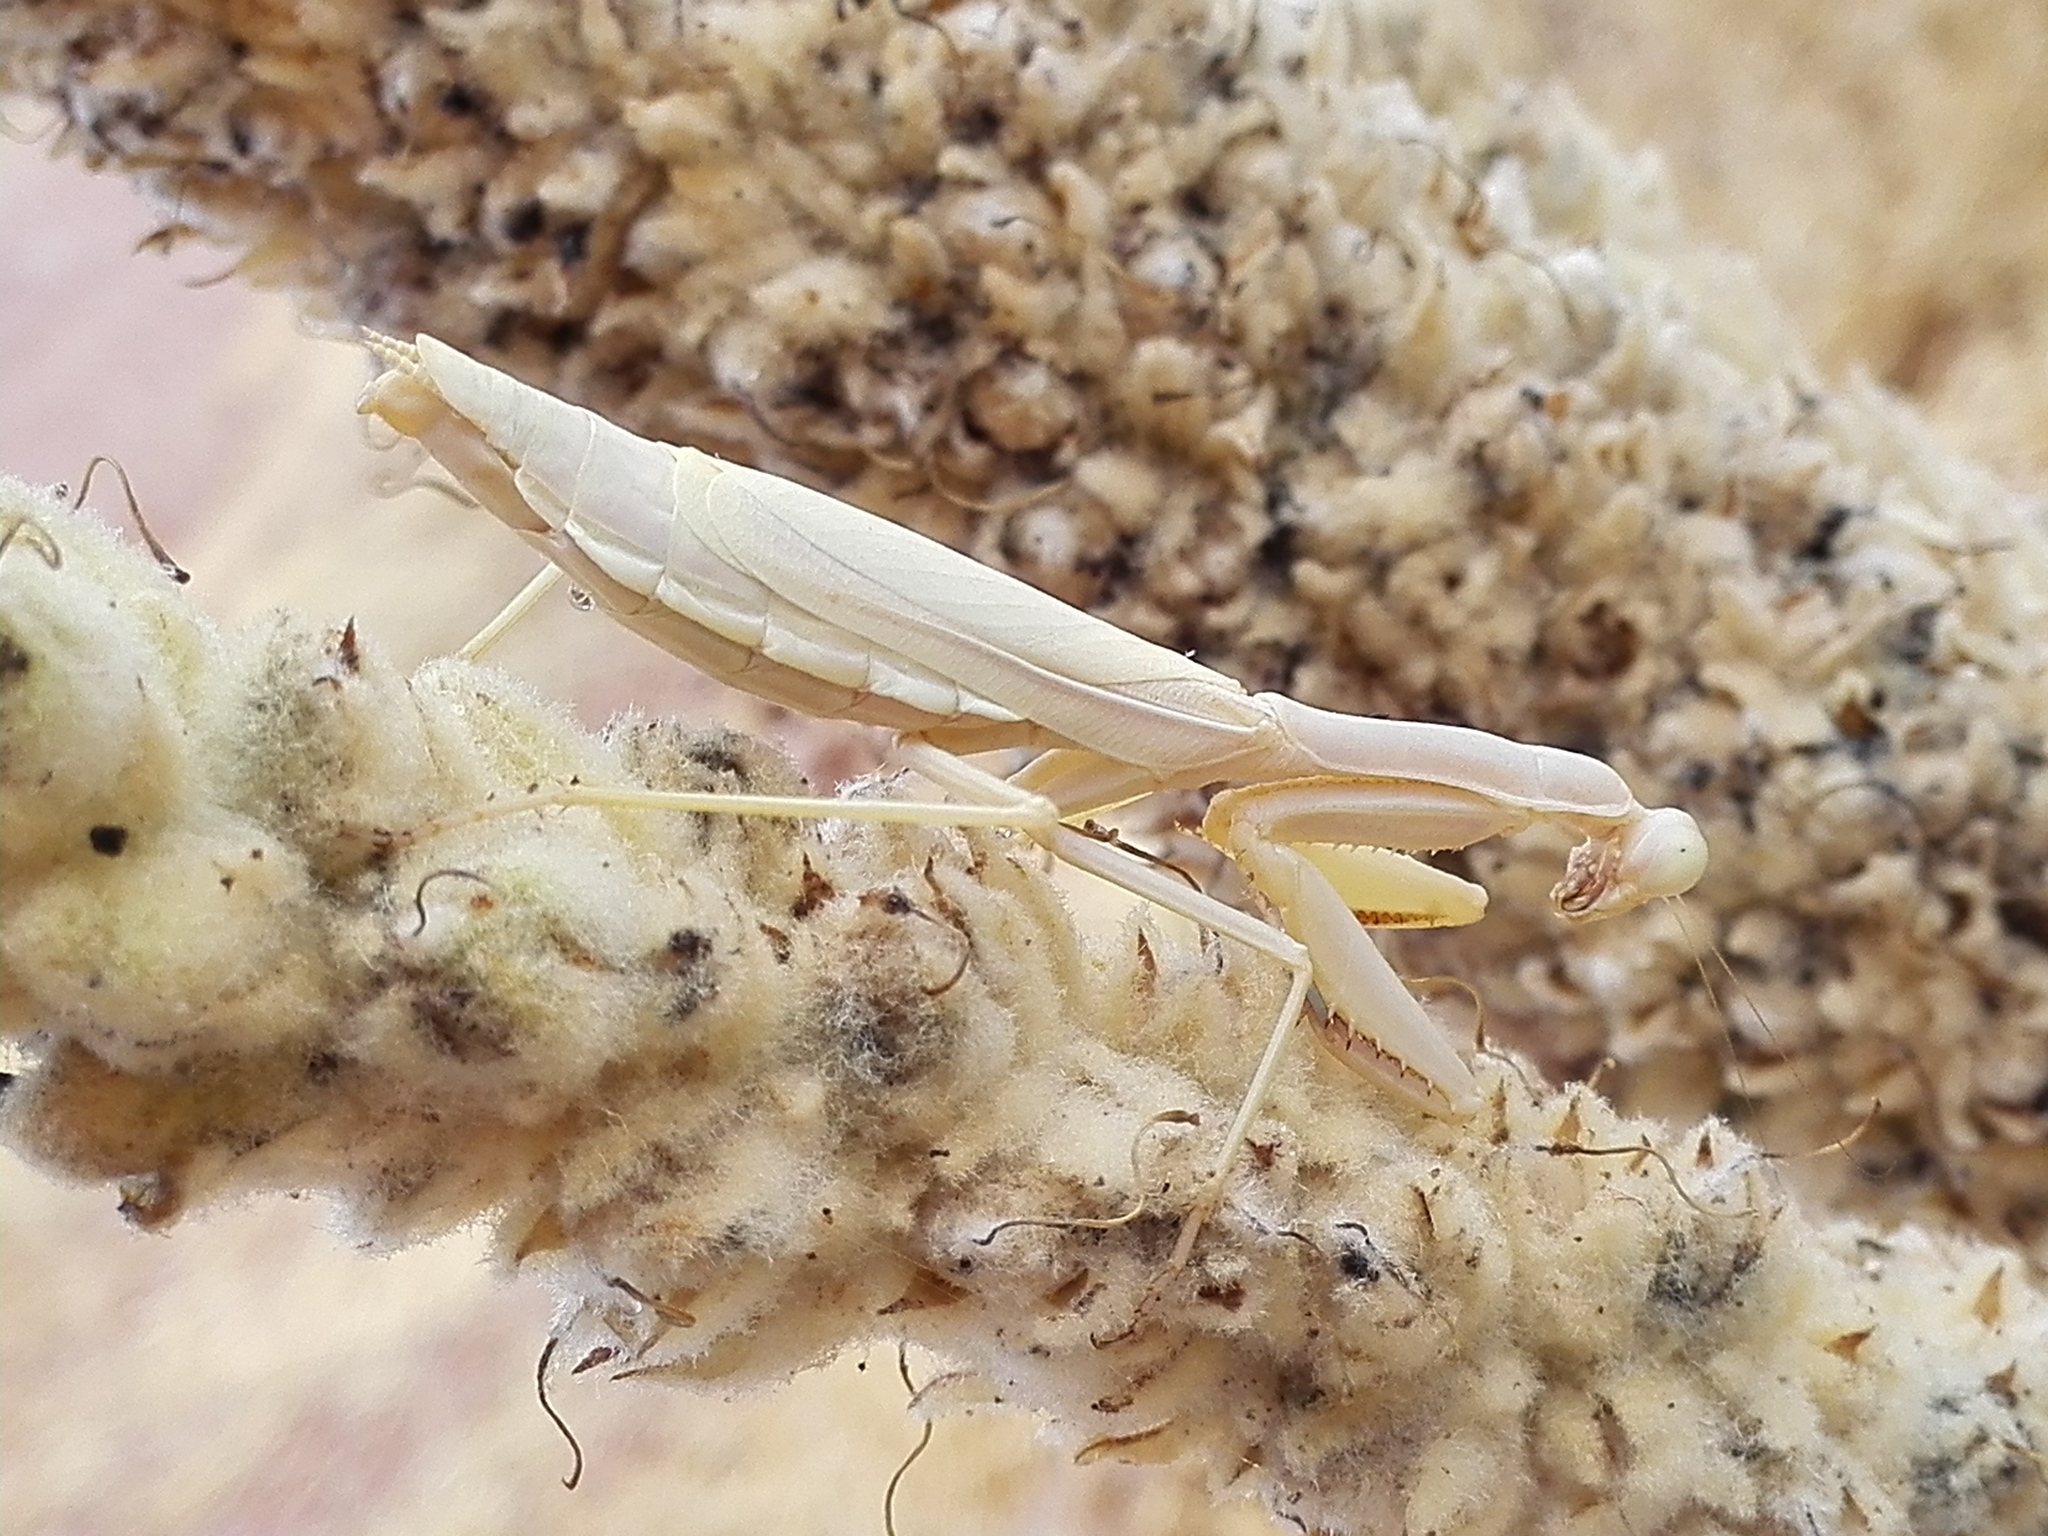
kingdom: Animalia
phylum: Arthropoda
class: Insecta
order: Mantodea
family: Eremiaphilidae
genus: Iris
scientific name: Iris oratoria
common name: Mediterranean mantis
